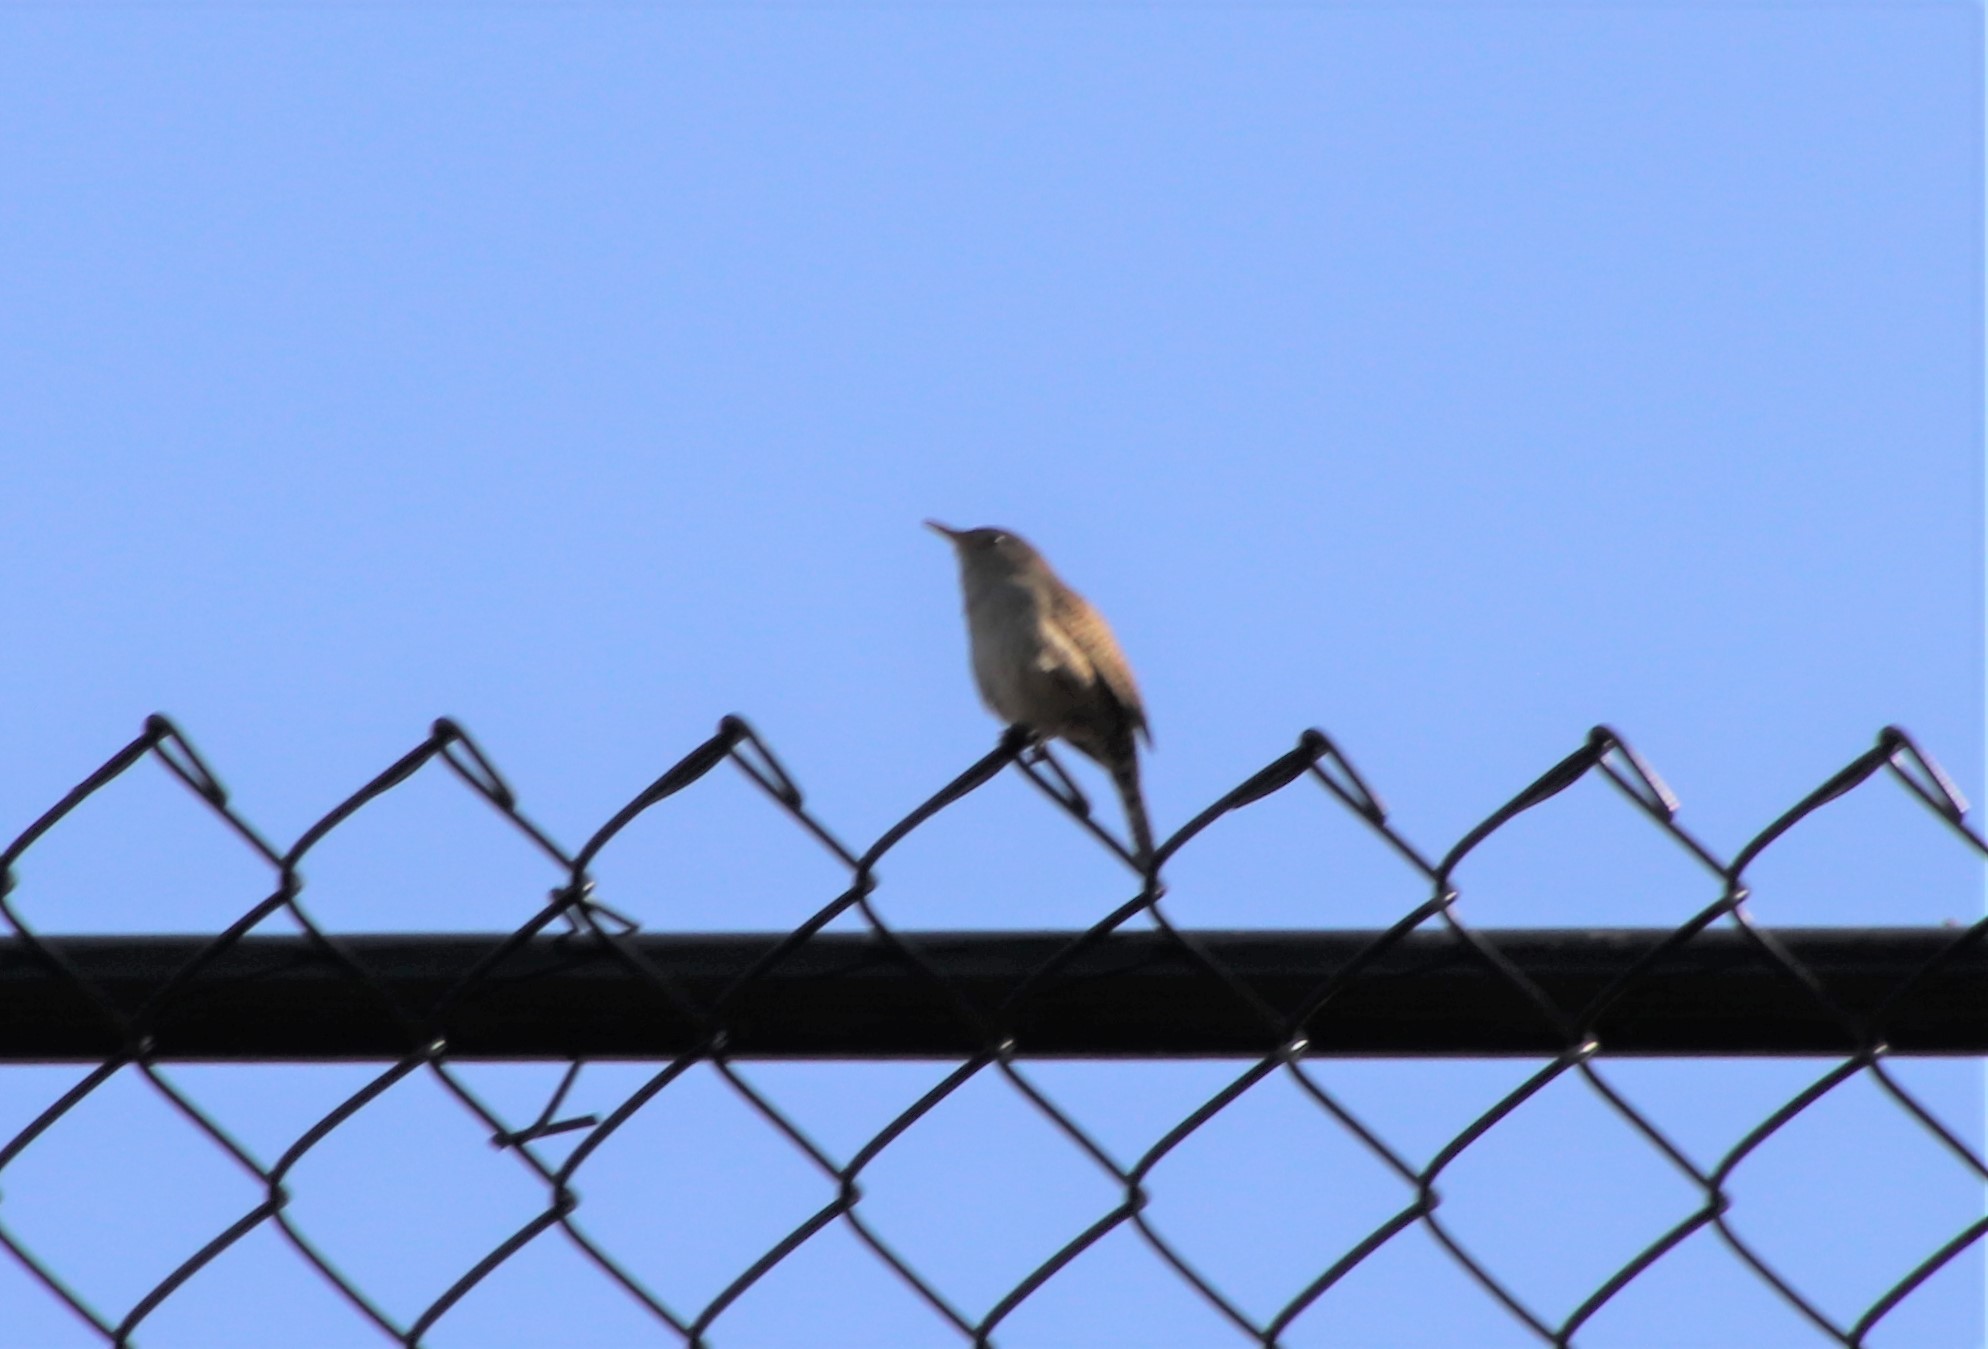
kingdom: Animalia
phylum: Chordata
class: Aves
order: Passeriformes
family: Troglodytidae
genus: Troglodytes
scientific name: Troglodytes aedon
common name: House wren
